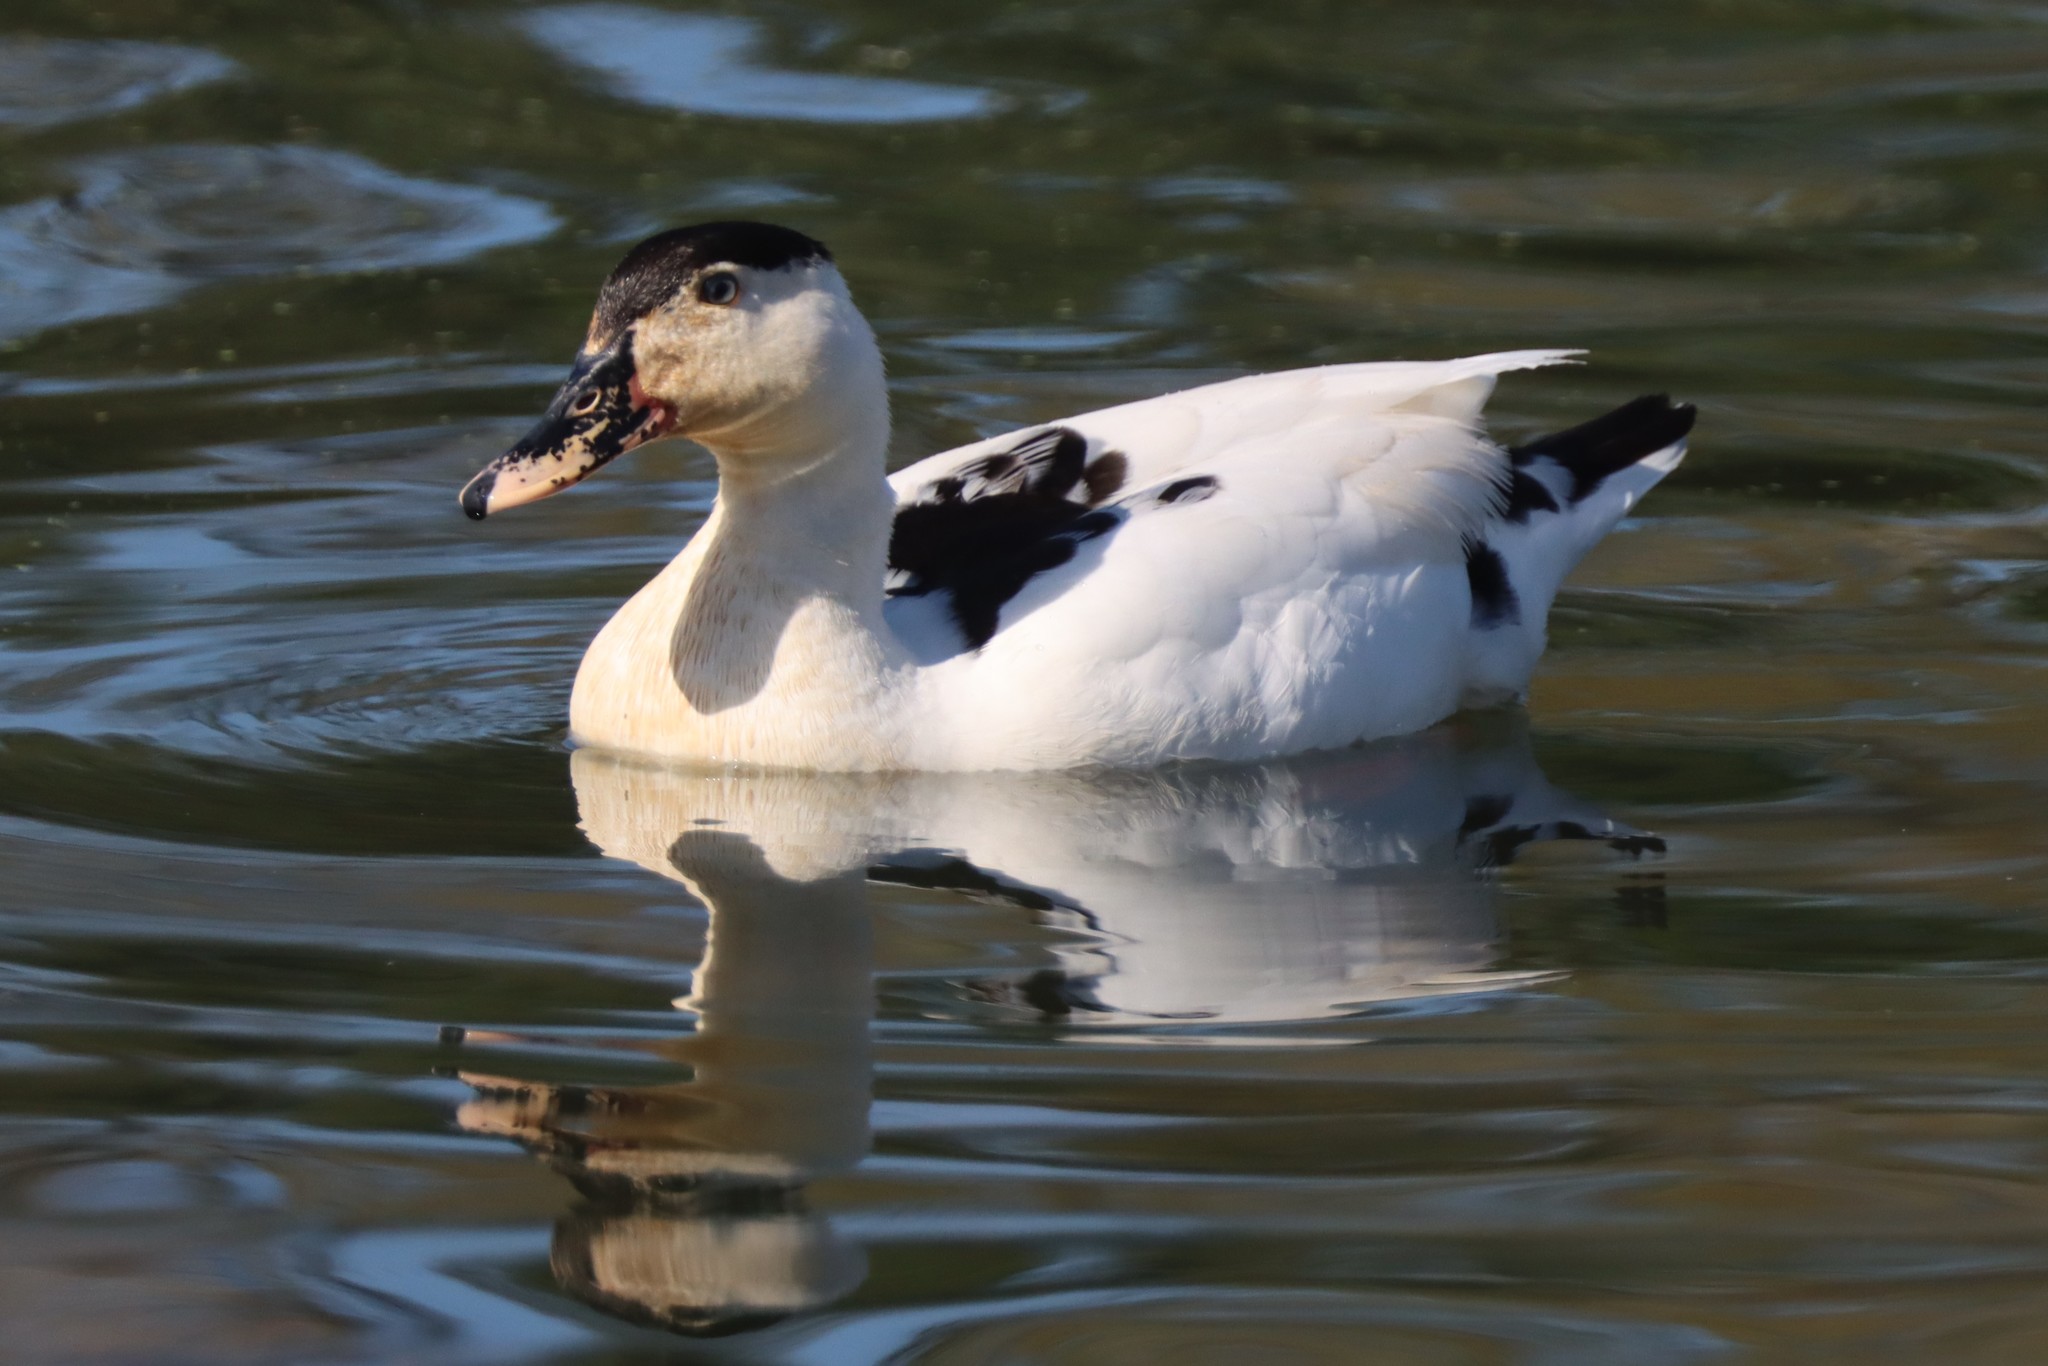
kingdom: Animalia
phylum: Chordata
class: Aves
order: Anseriformes
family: Anatidae
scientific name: Anatidae
